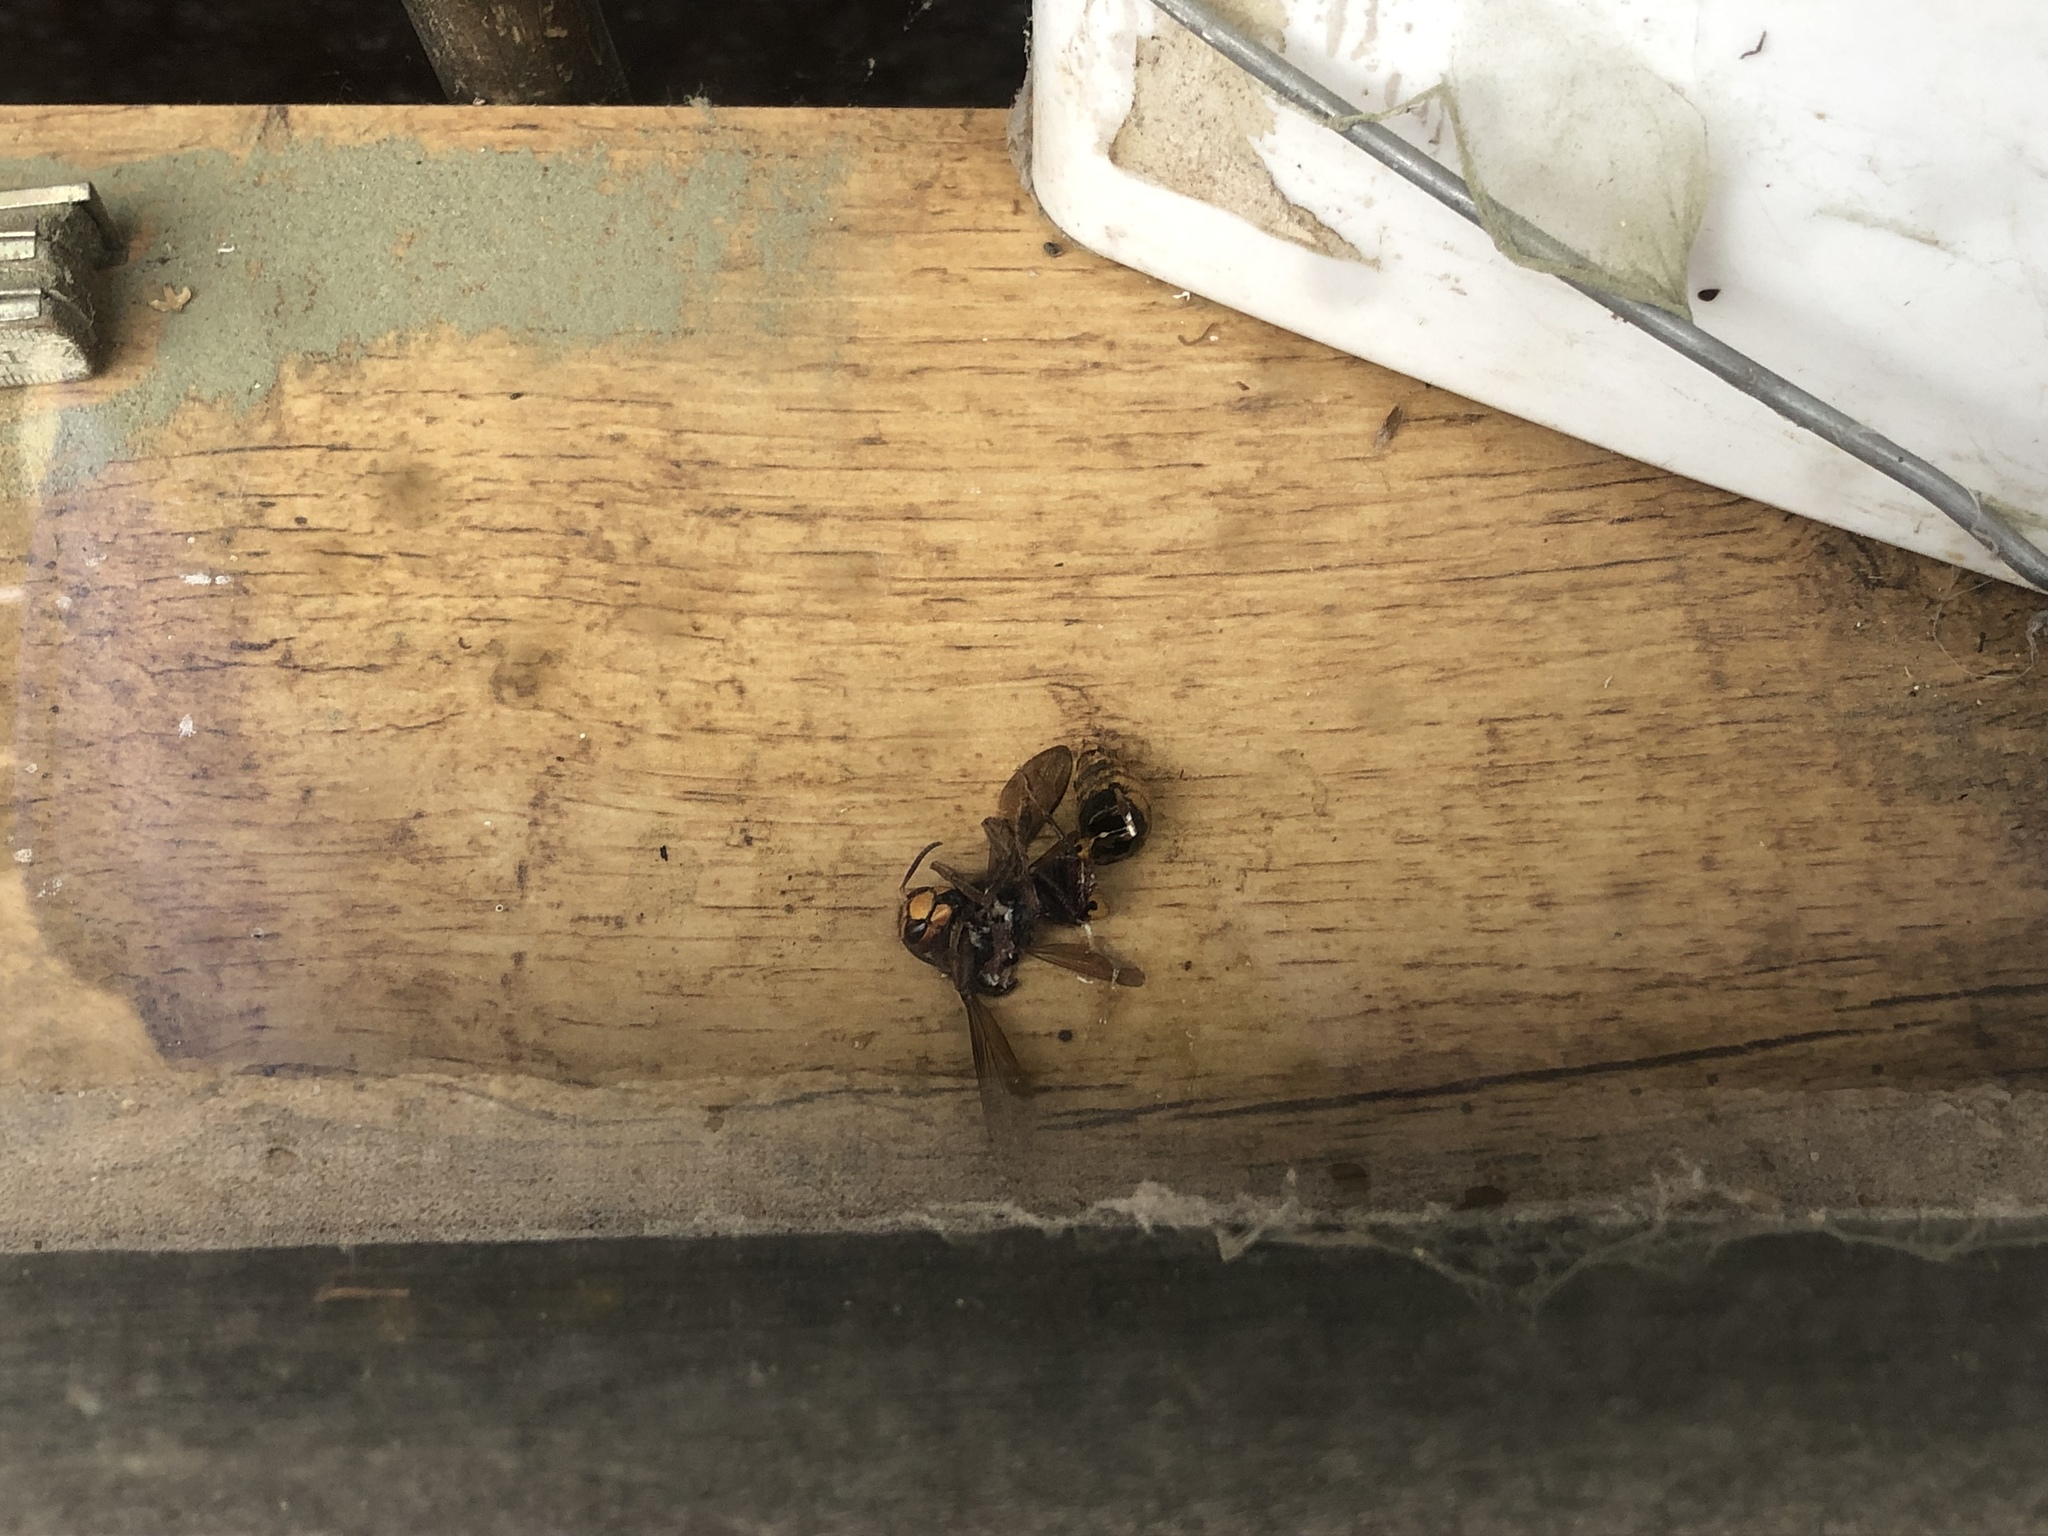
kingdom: Animalia
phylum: Arthropoda
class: Insecta
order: Hymenoptera
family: Vespidae
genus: Vespa
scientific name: Vespa crabro
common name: Hornet
